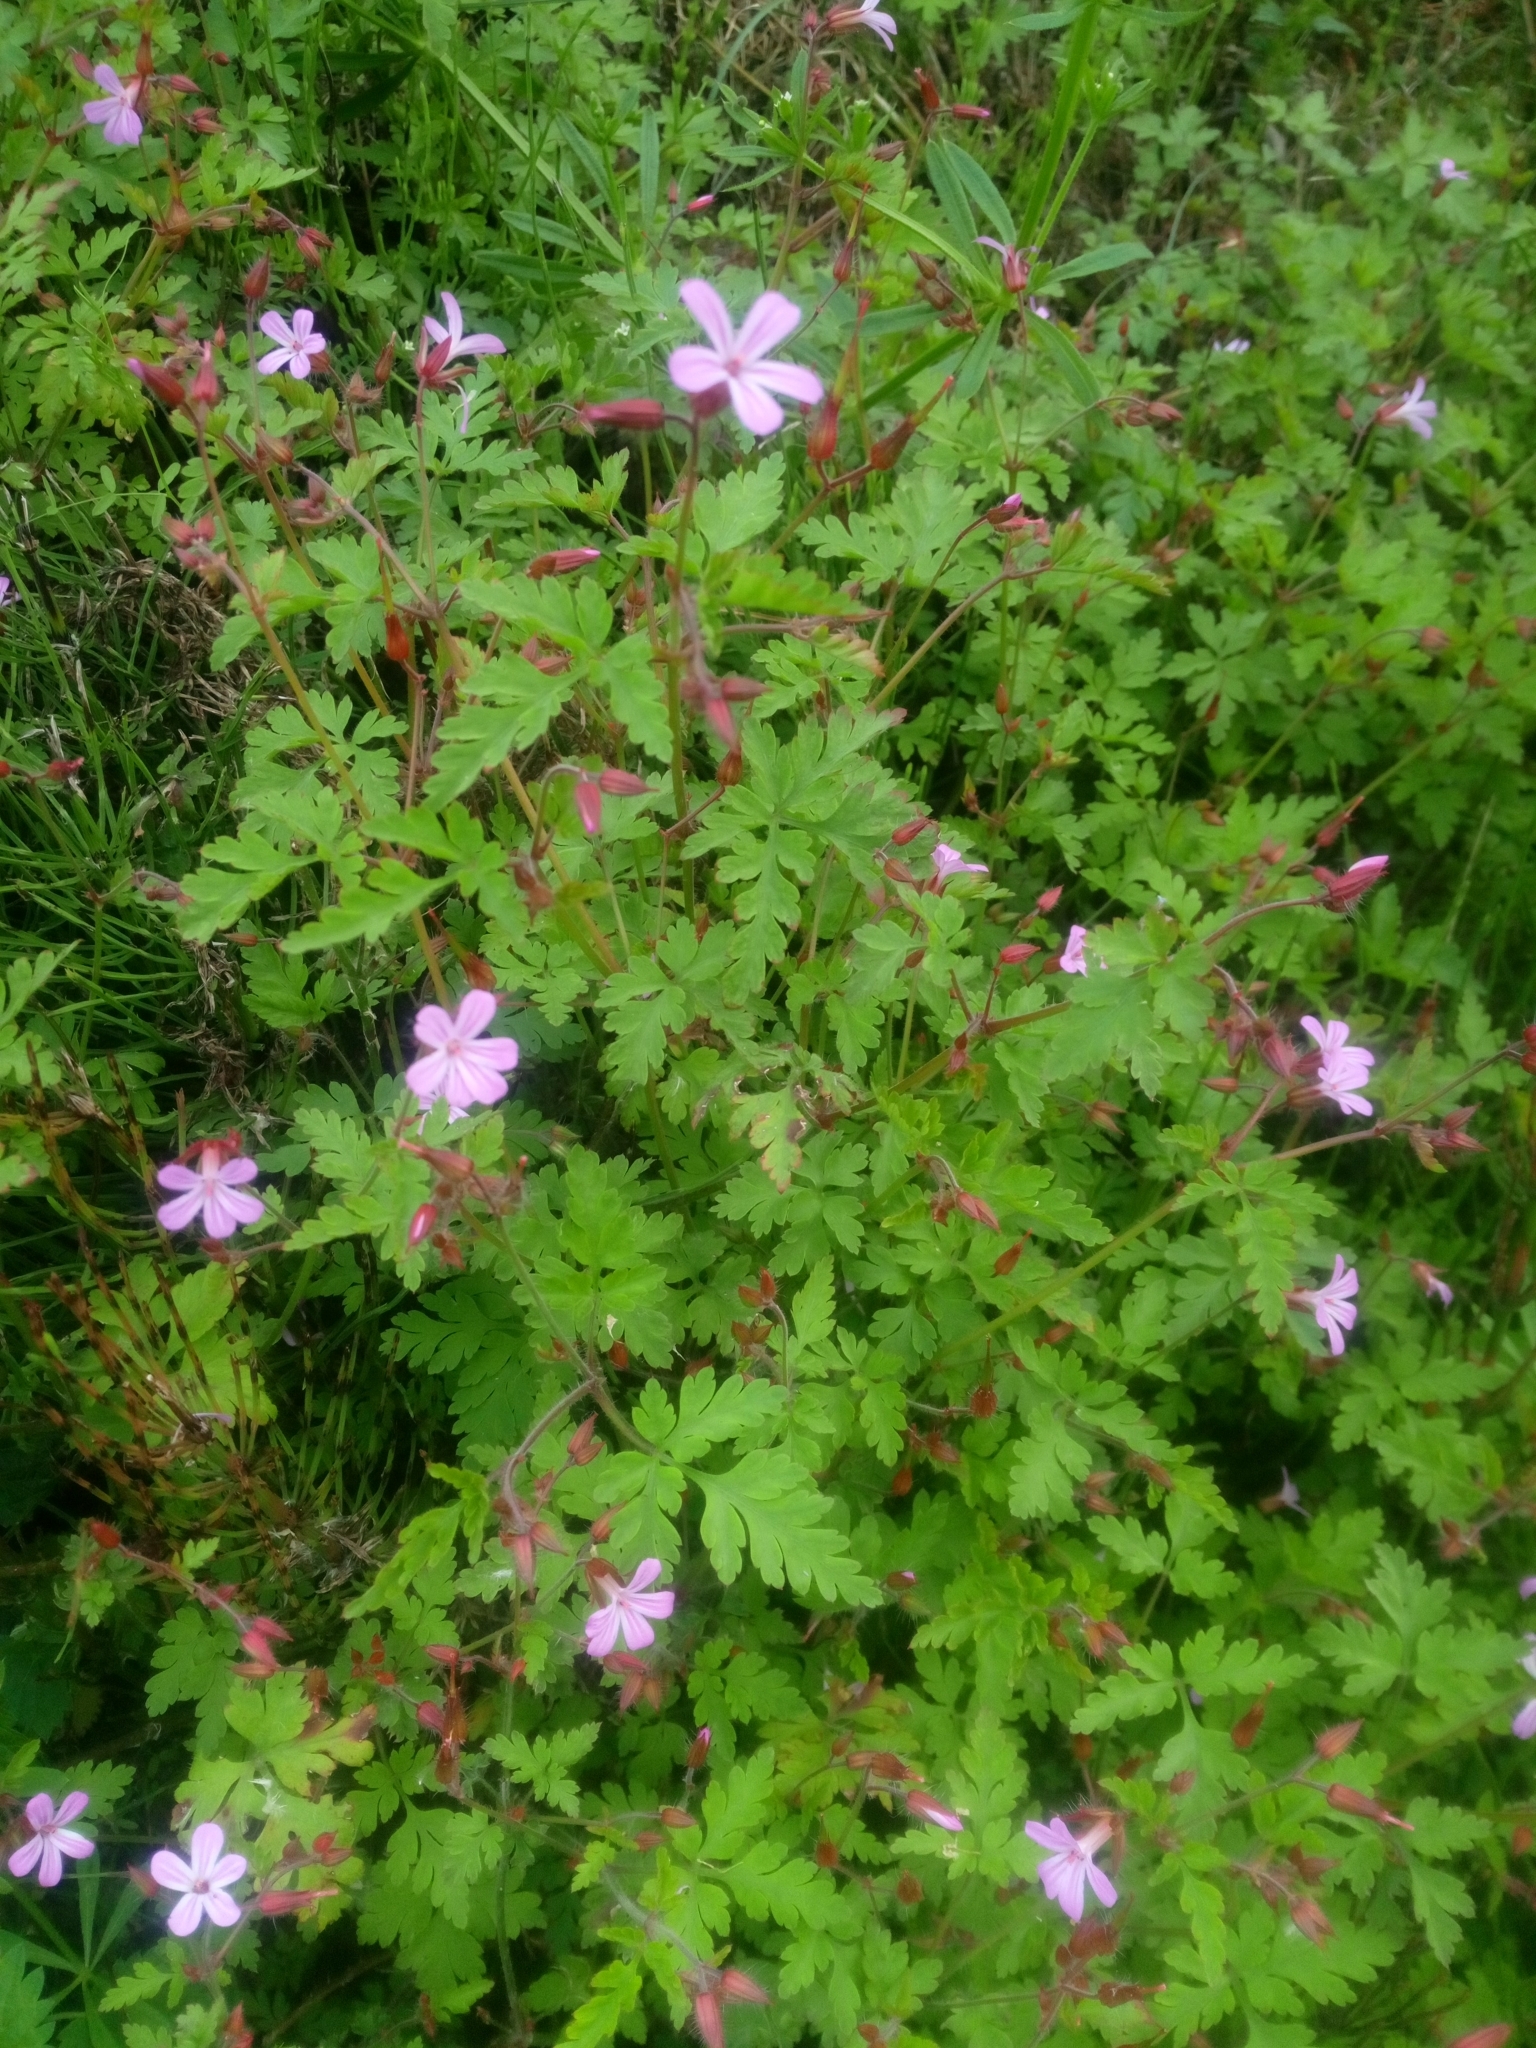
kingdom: Plantae
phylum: Tracheophyta
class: Magnoliopsida
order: Geraniales
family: Geraniaceae
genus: Geranium
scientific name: Geranium robertianum
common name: Herb-robert
